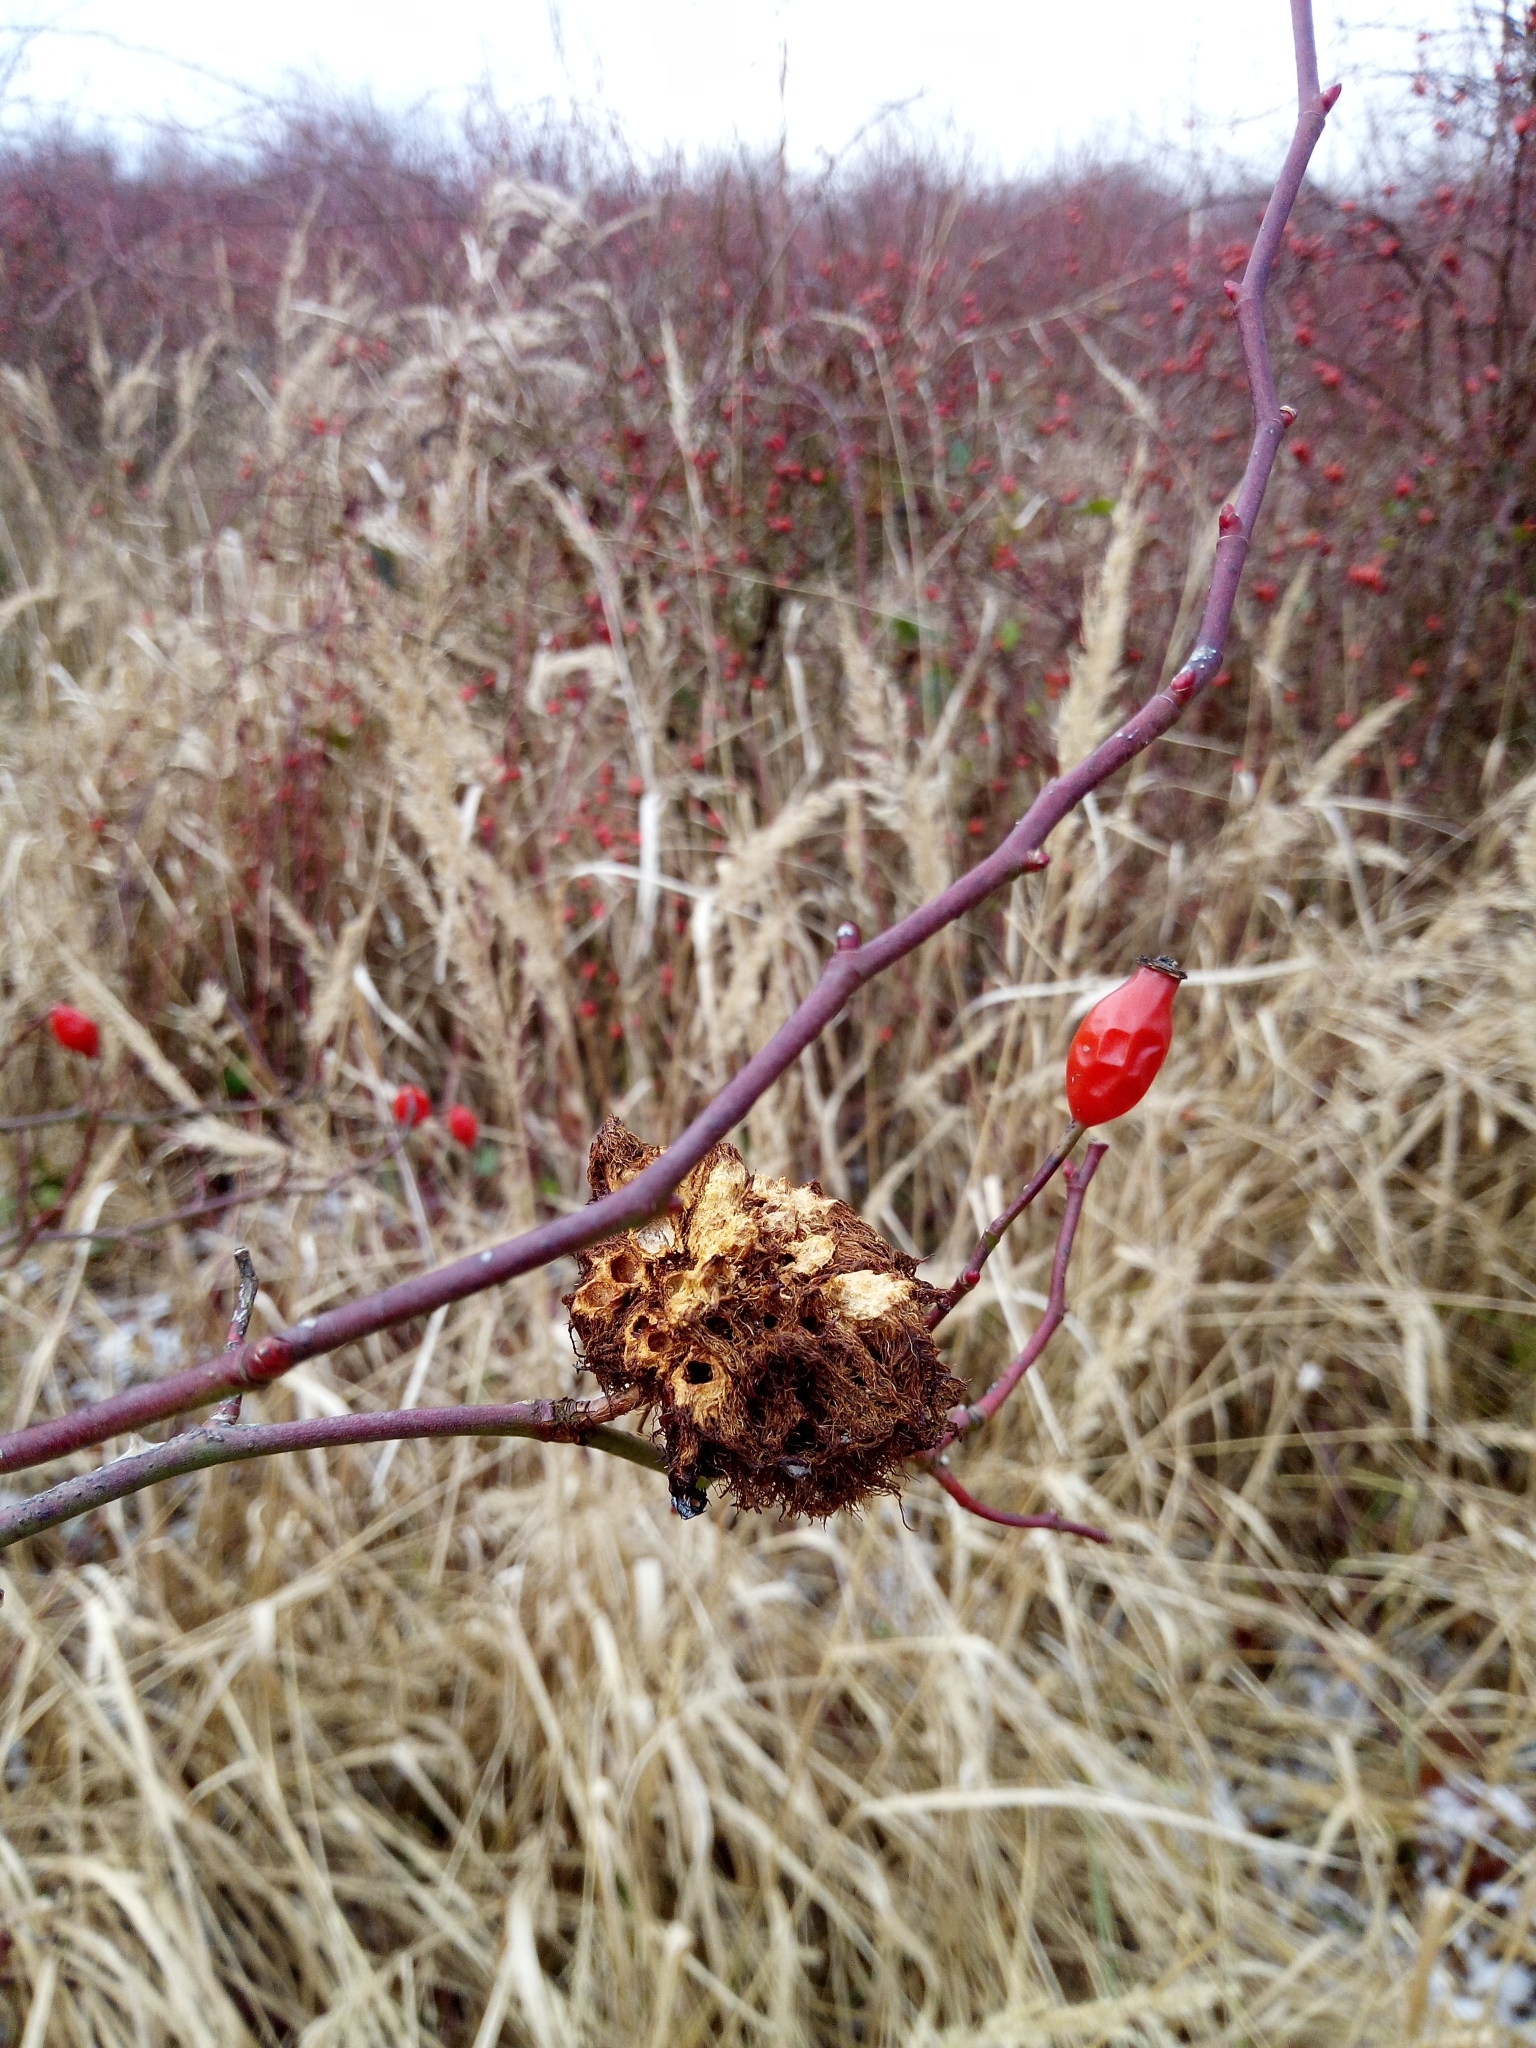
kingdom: Animalia
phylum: Arthropoda
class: Insecta
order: Hymenoptera
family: Cynipidae
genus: Diplolepis
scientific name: Diplolepis rosae
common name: Bedeguar gall
